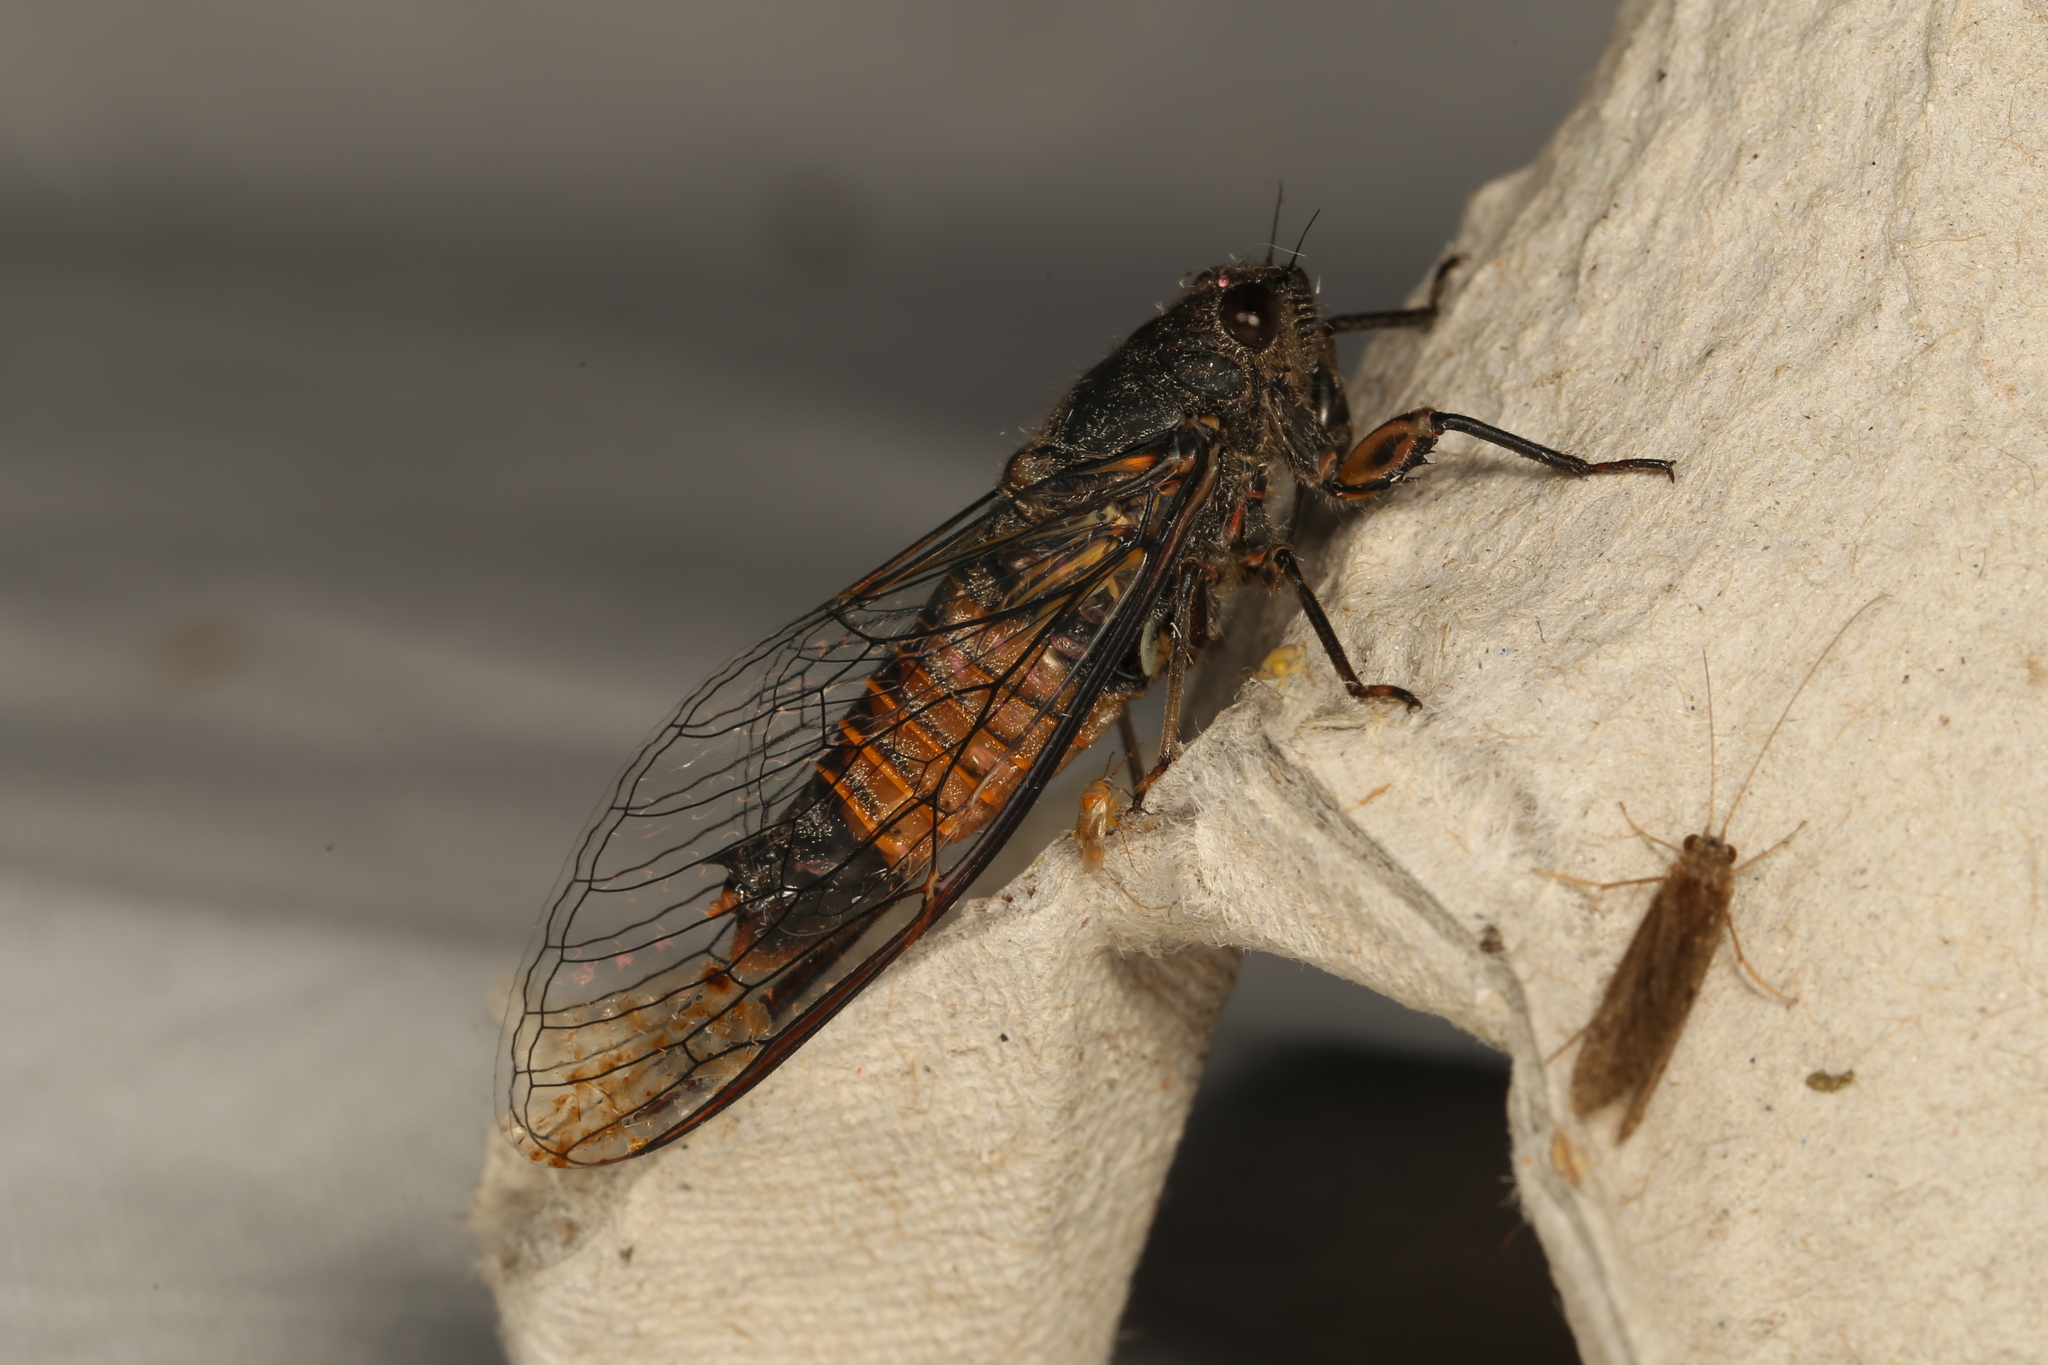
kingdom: Animalia
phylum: Arthropoda
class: Insecta
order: Hemiptera
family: Cicadidae
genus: Yoyetta
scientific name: Yoyetta australicta
